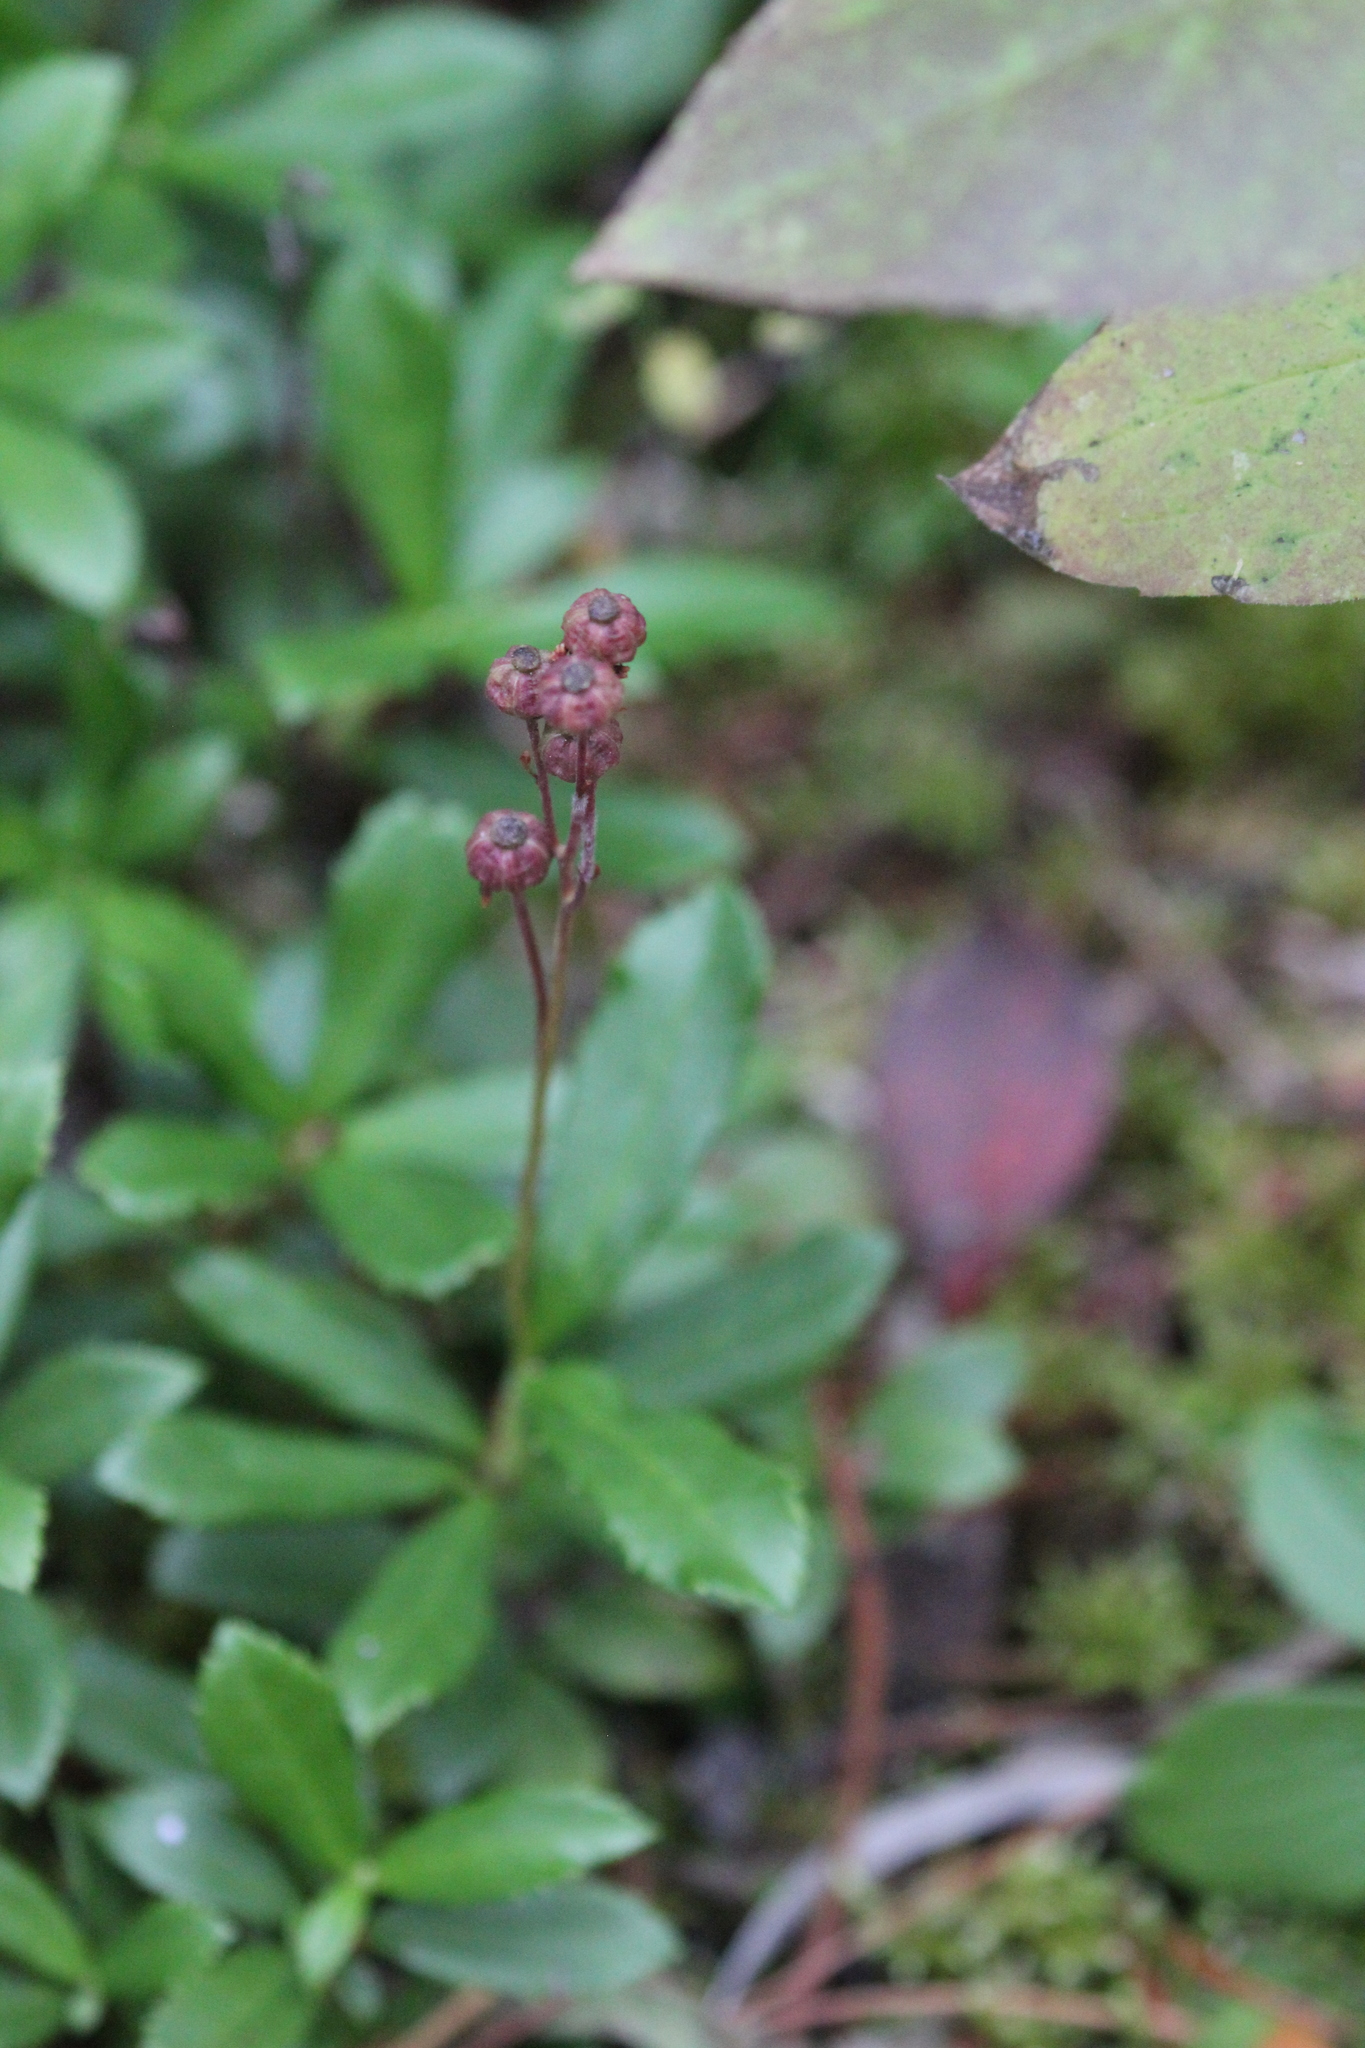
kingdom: Plantae
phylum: Tracheophyta
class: Magnoliopsida
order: Ericales
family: Ericaceae
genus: Chimaphila
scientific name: Chimaphila umbellata
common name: Pipsissewa
